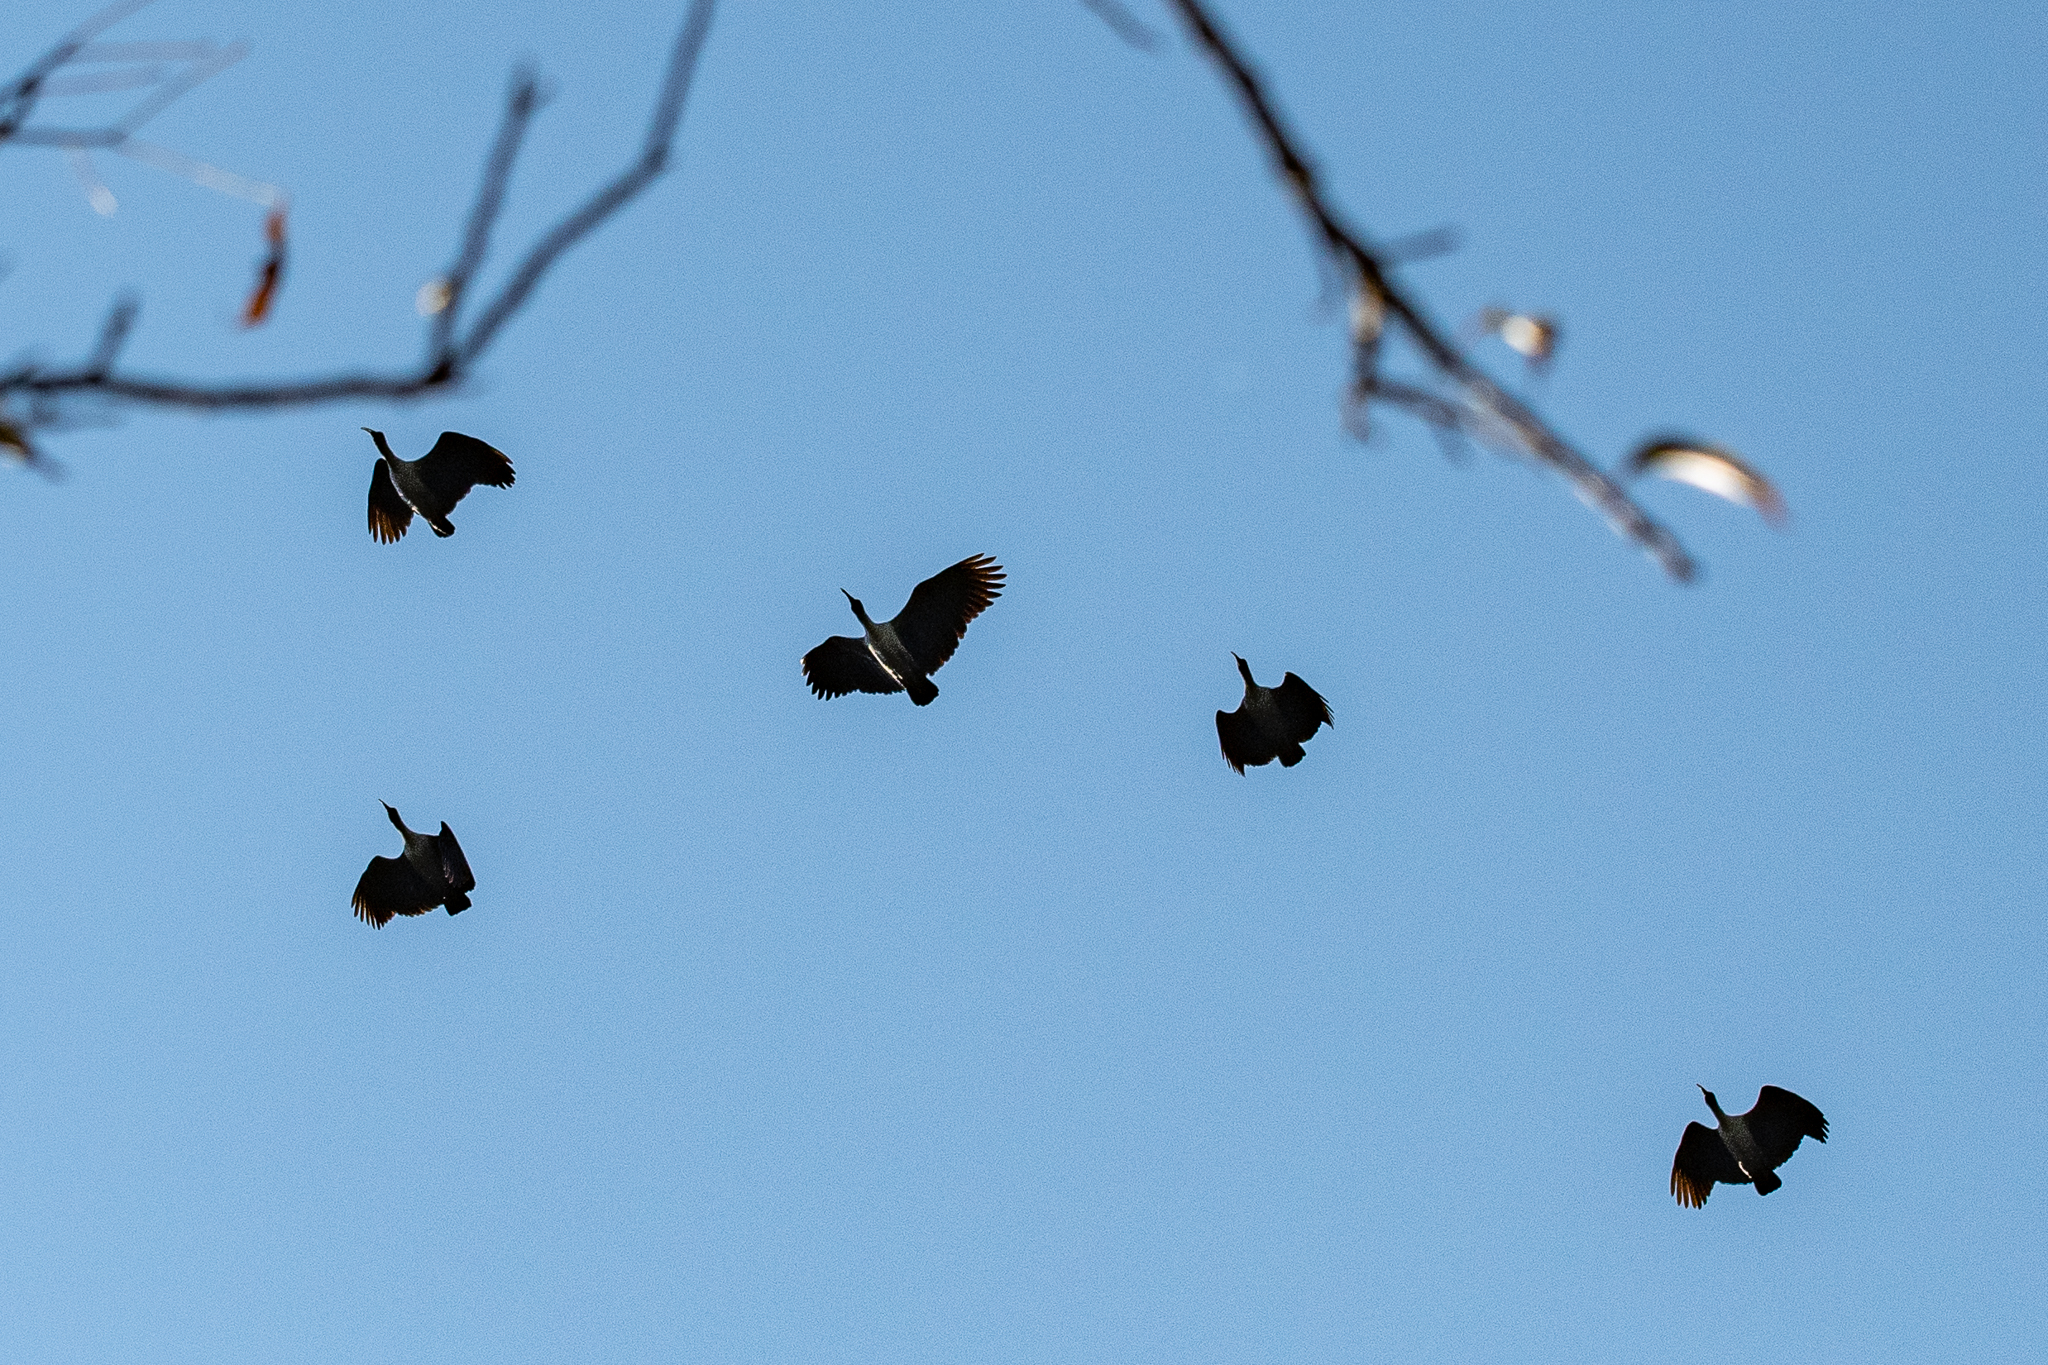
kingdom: Animalia
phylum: Chordata
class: Aves
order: Pelecaniformes
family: Threskiornithidae
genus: Bostrychia
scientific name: Bostrychia hagedash
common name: Hadada ibis
